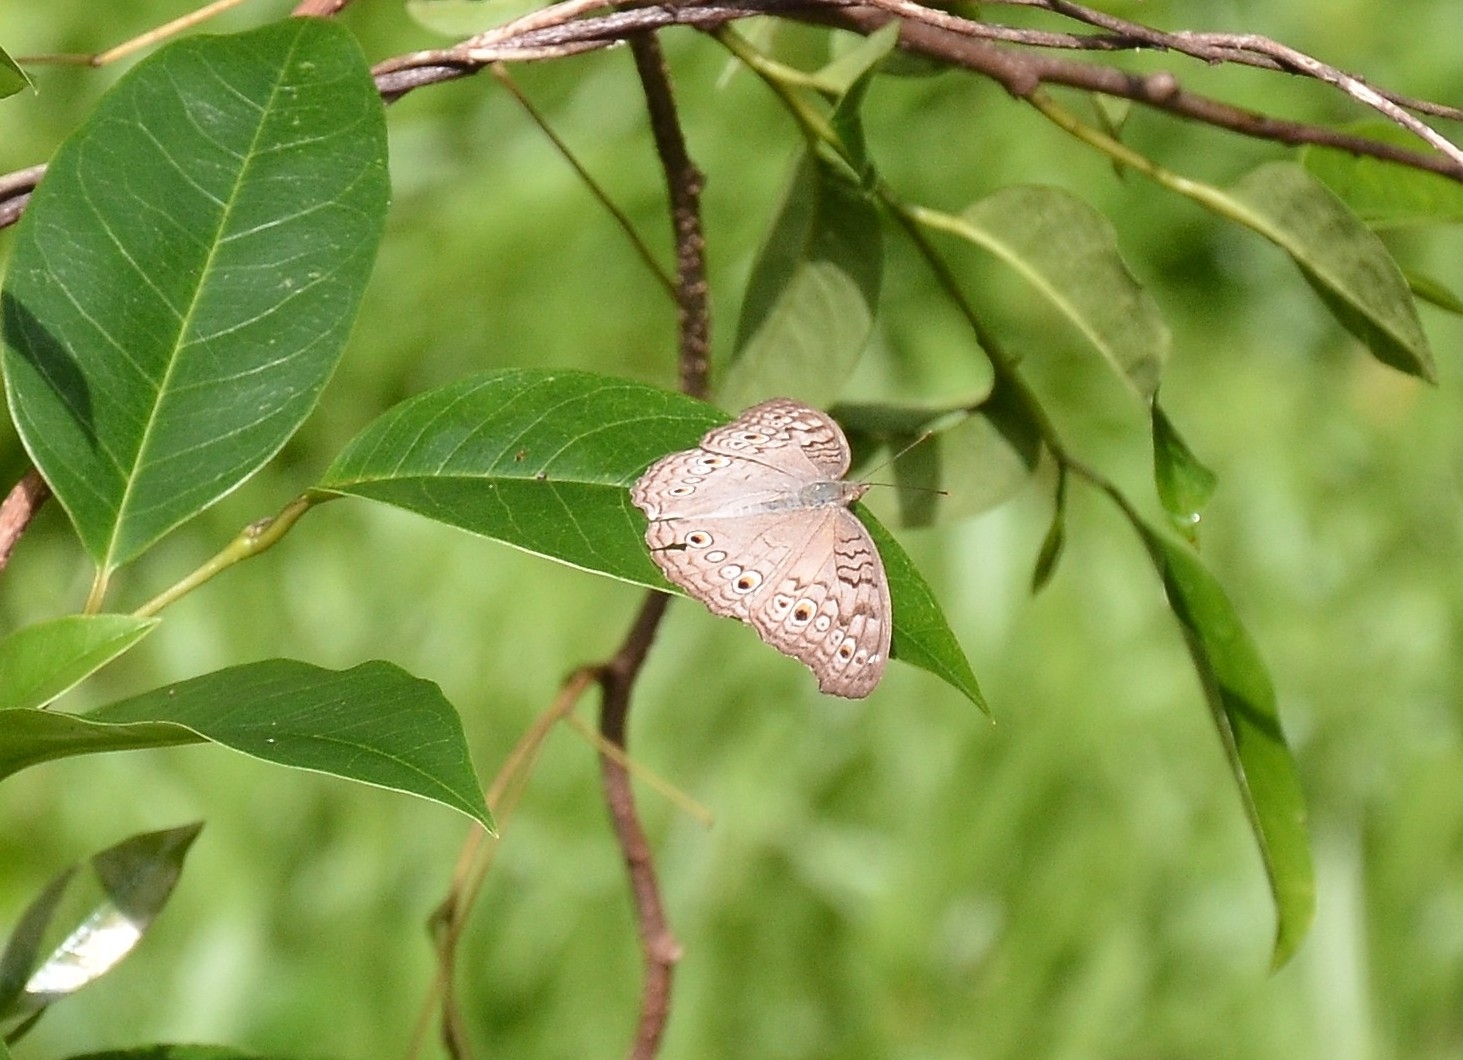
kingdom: Animalia
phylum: Arthropoda
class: Insecta
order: Lepidoptera
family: Nymphalidae
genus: Junonia
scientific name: Junonia atlites
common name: Grey pansy
